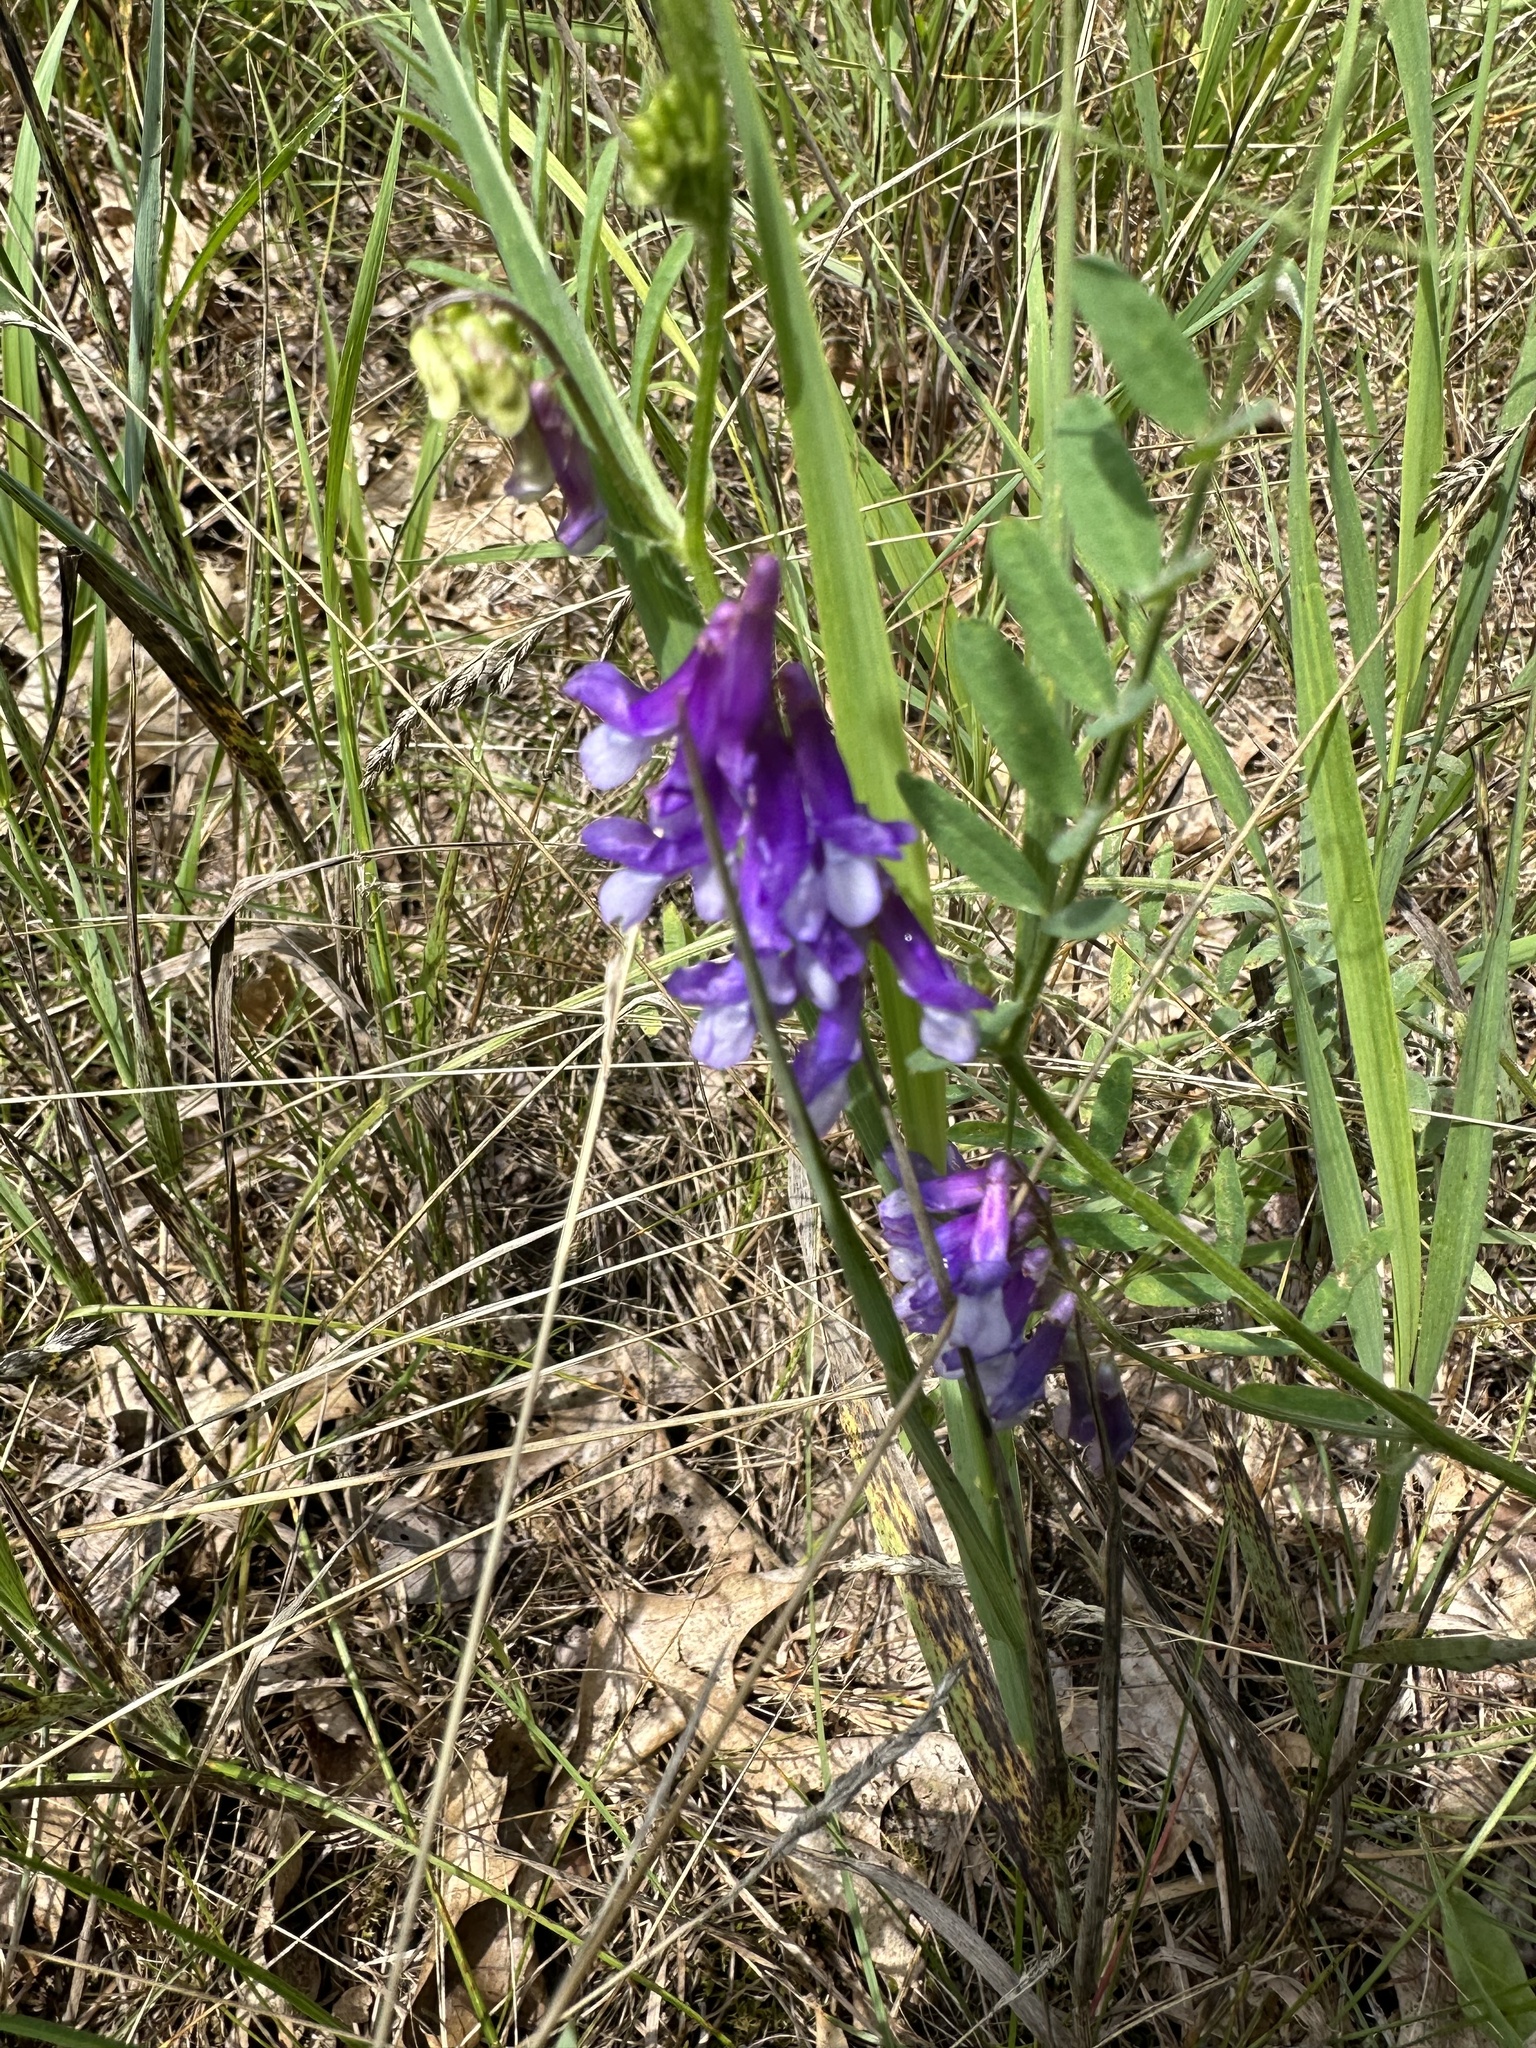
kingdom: Plantae
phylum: Tracheophyta
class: Magnoliopsida
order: Fabales
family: Fabaceae
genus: Vicia
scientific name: Vicia villosa
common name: Fodder vetch
